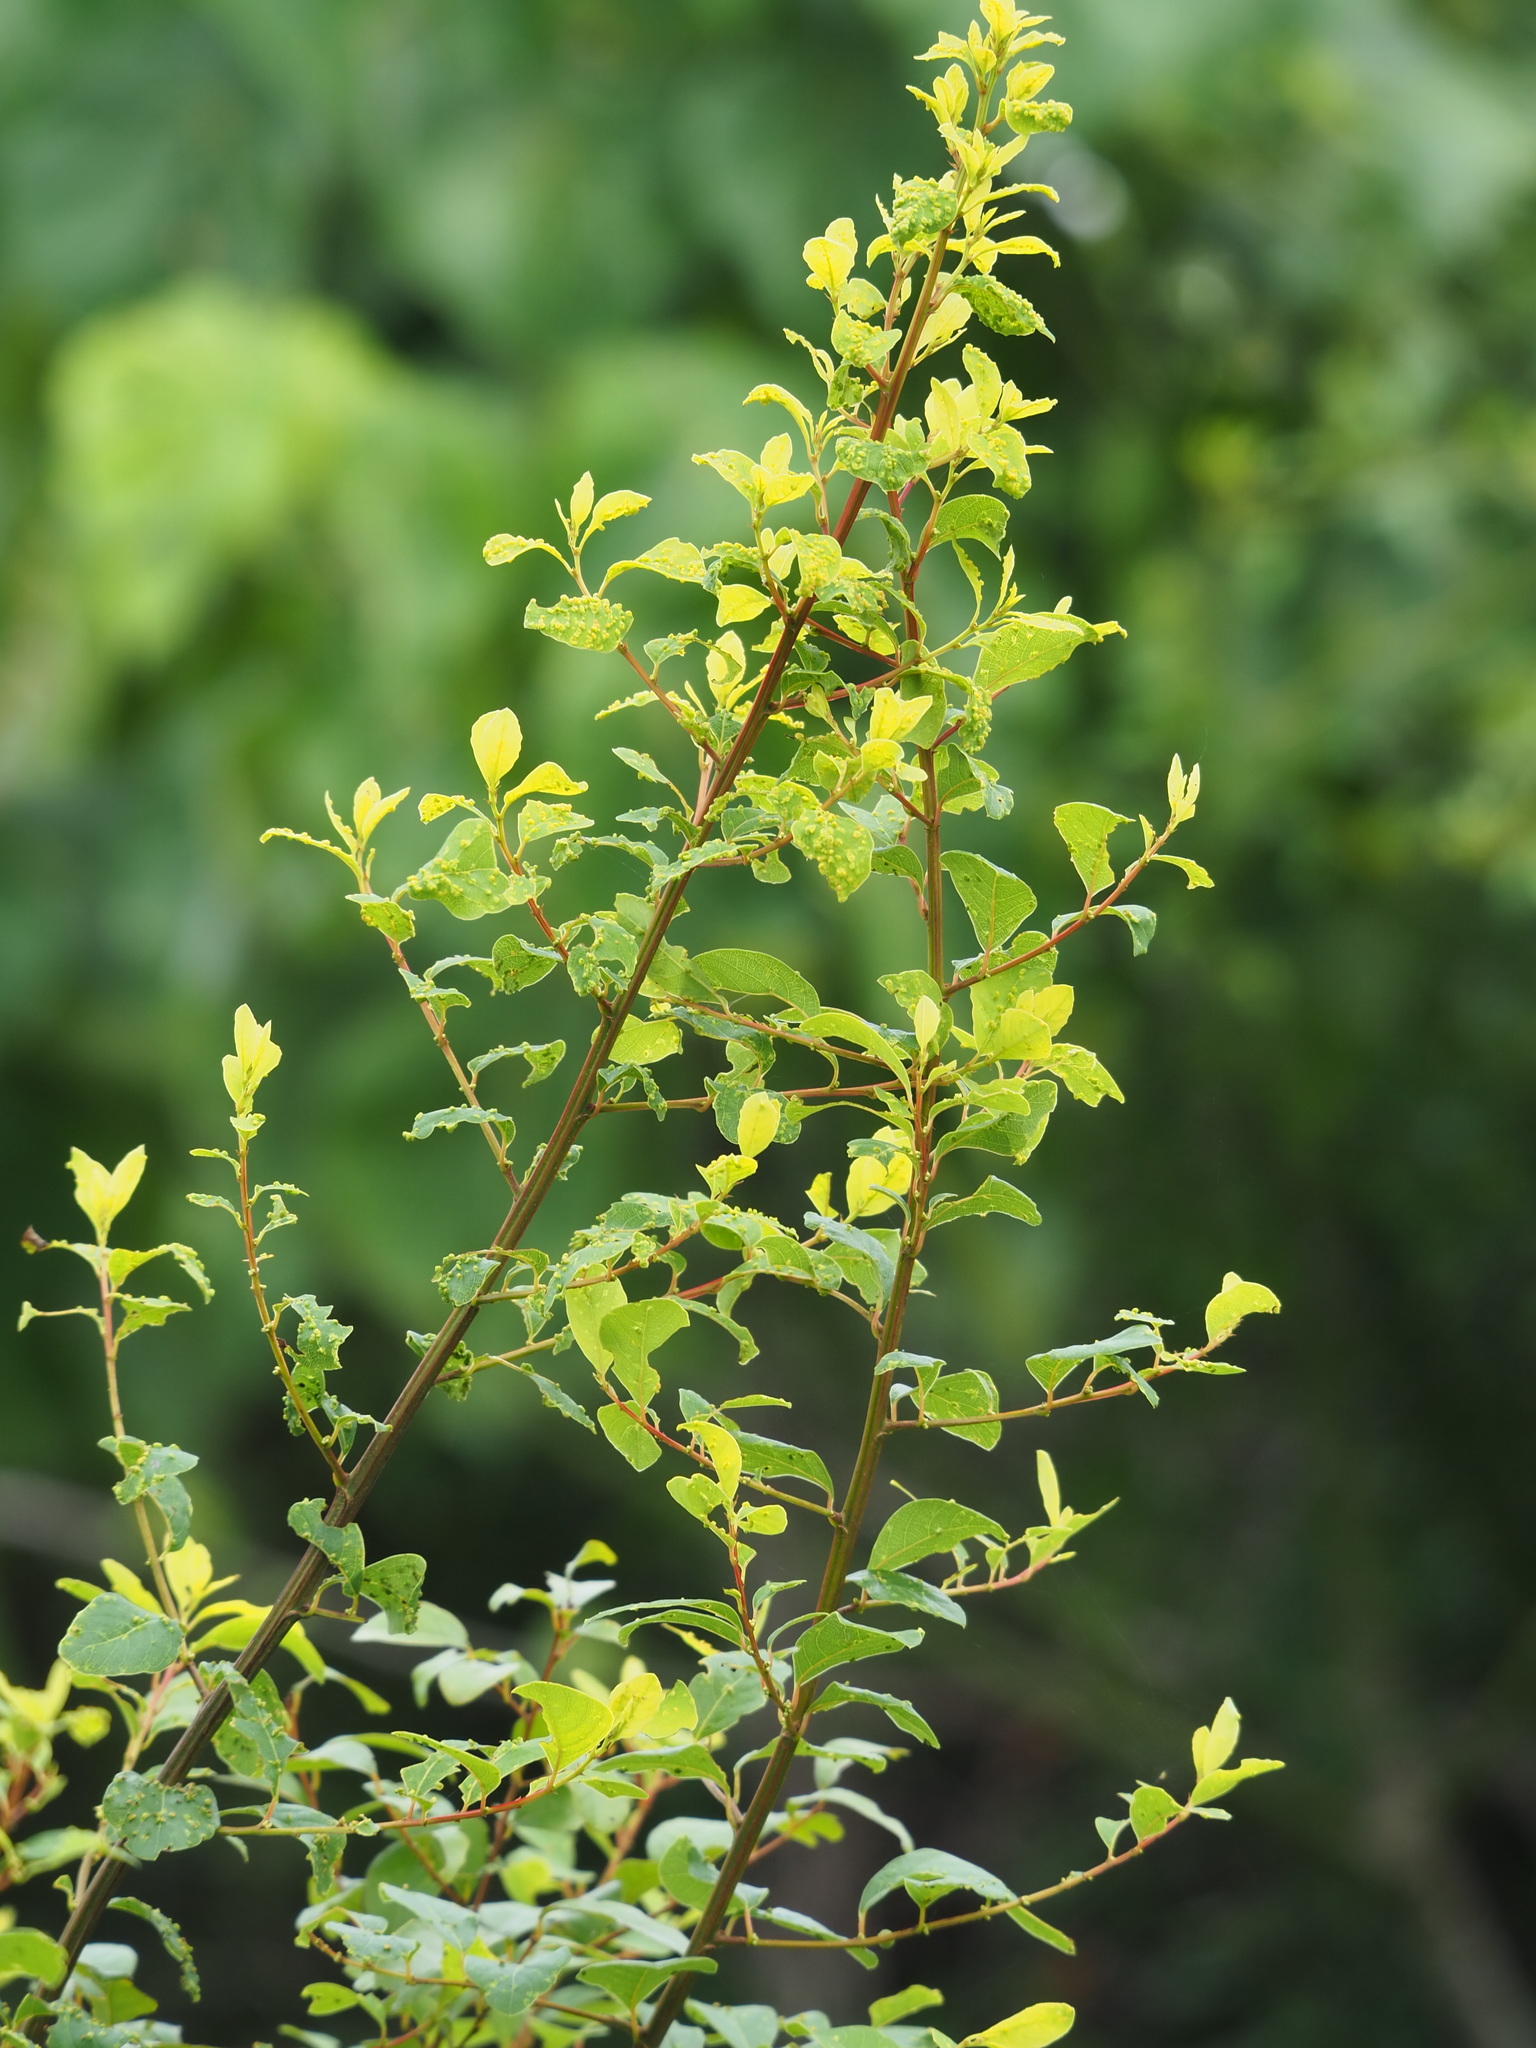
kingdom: Plantae
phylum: Tracheophyta
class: Magnoliopsida
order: Malpighiales
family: Phyllanthaceae
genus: Flueggea
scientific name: Flueggea virosa
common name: Common bushweed
